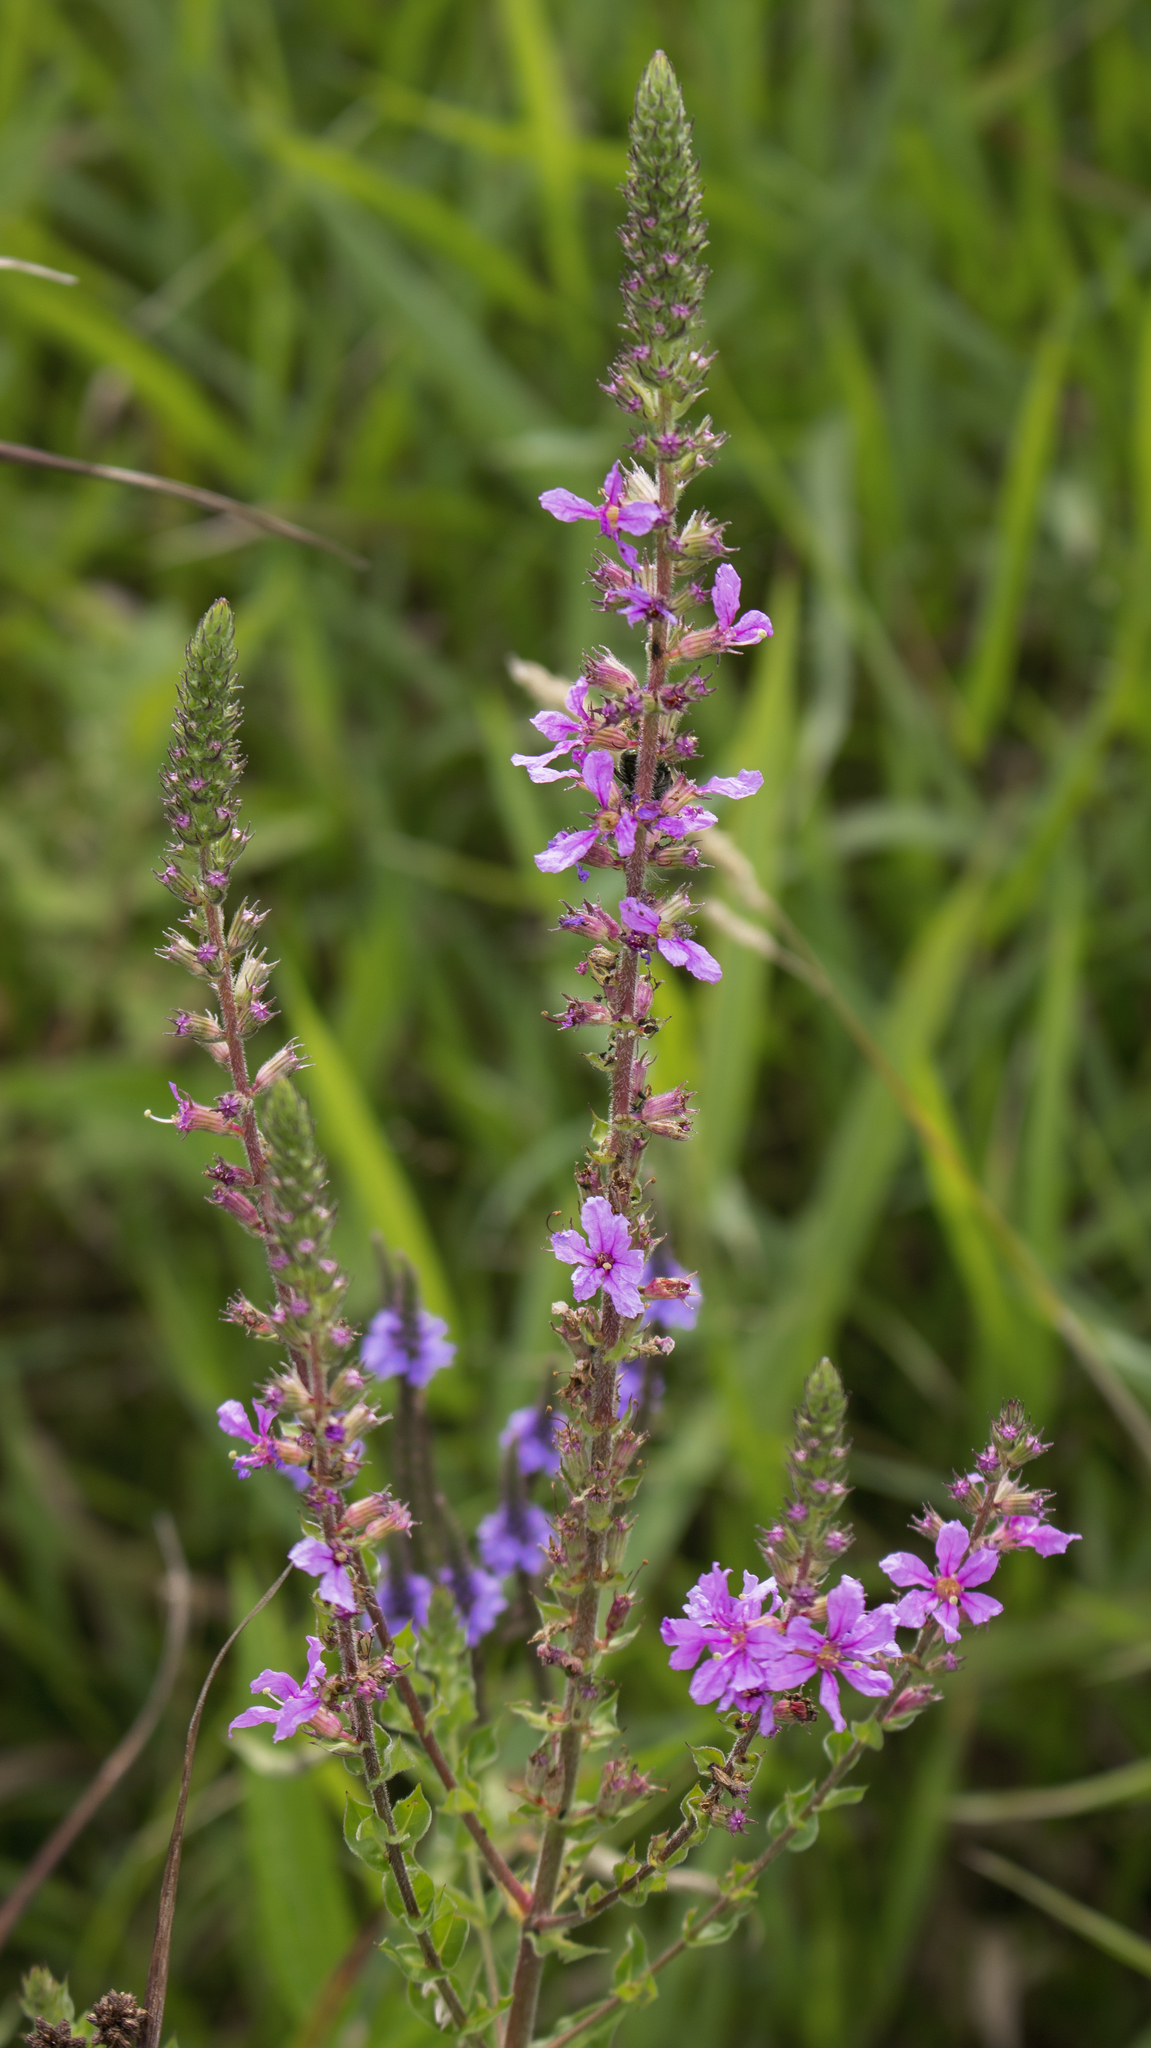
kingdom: Plantae
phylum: Tracheophyta
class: Magnoliopsida
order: Myrtales
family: Lythraceae
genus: Lythrum
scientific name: Lythrum salicaria
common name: Purple loosestrife
